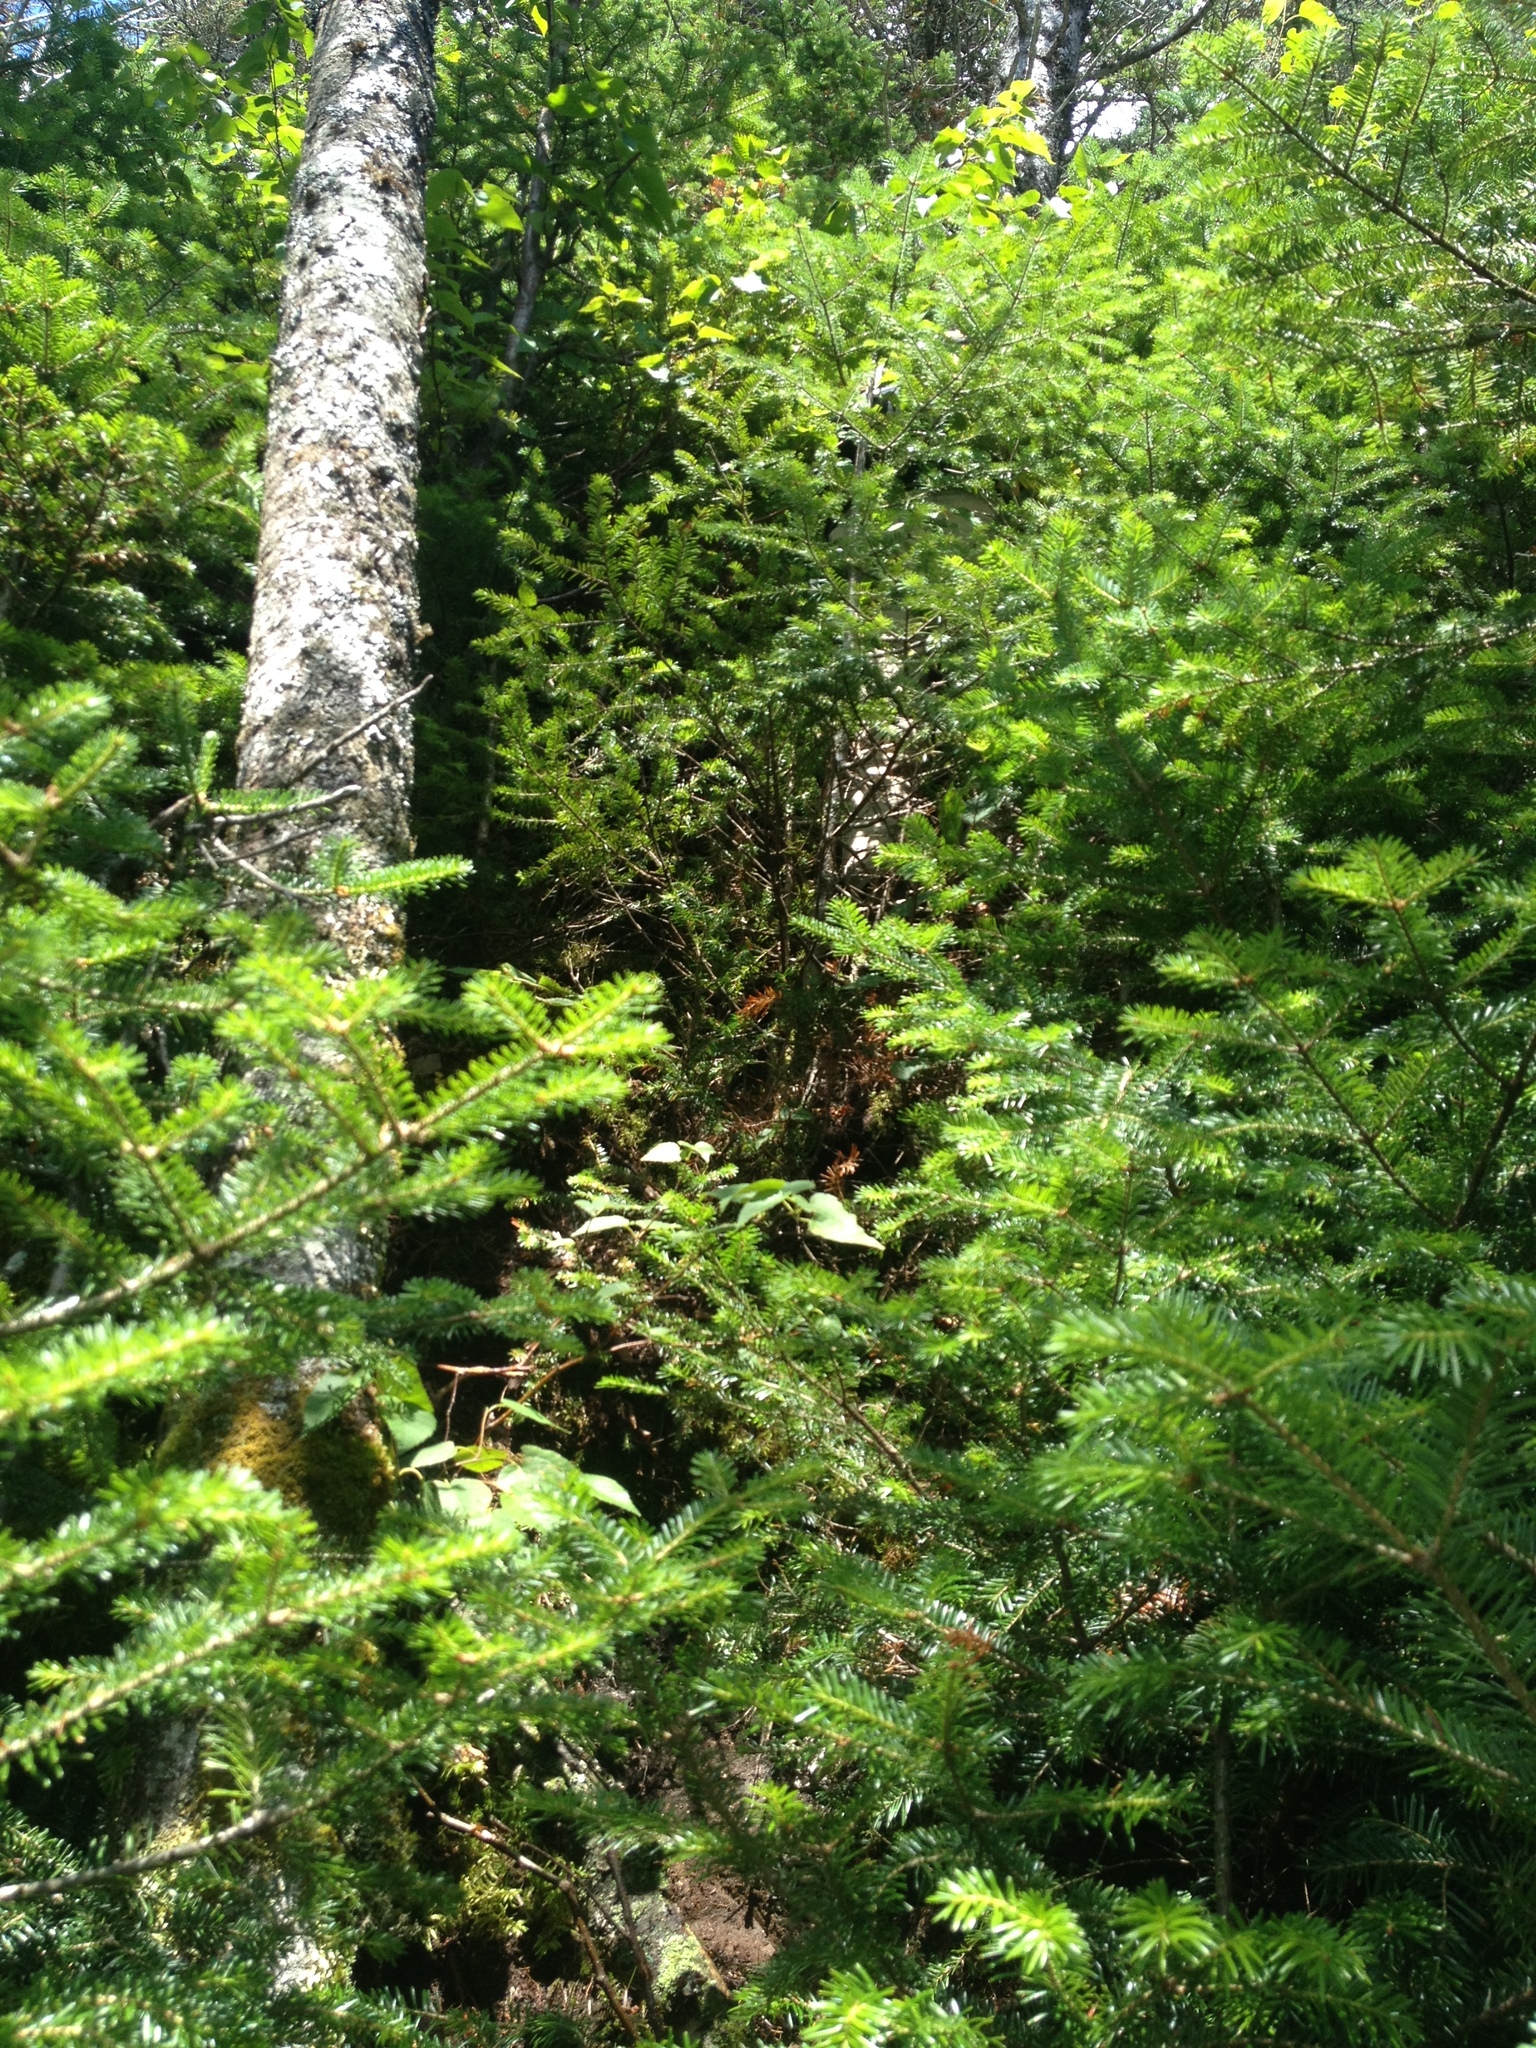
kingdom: Plantae
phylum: Tracheophyta
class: Pinopsida
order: Pinales
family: Pinaceae
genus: Abies
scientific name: Abies balsamea
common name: Balsam fir
